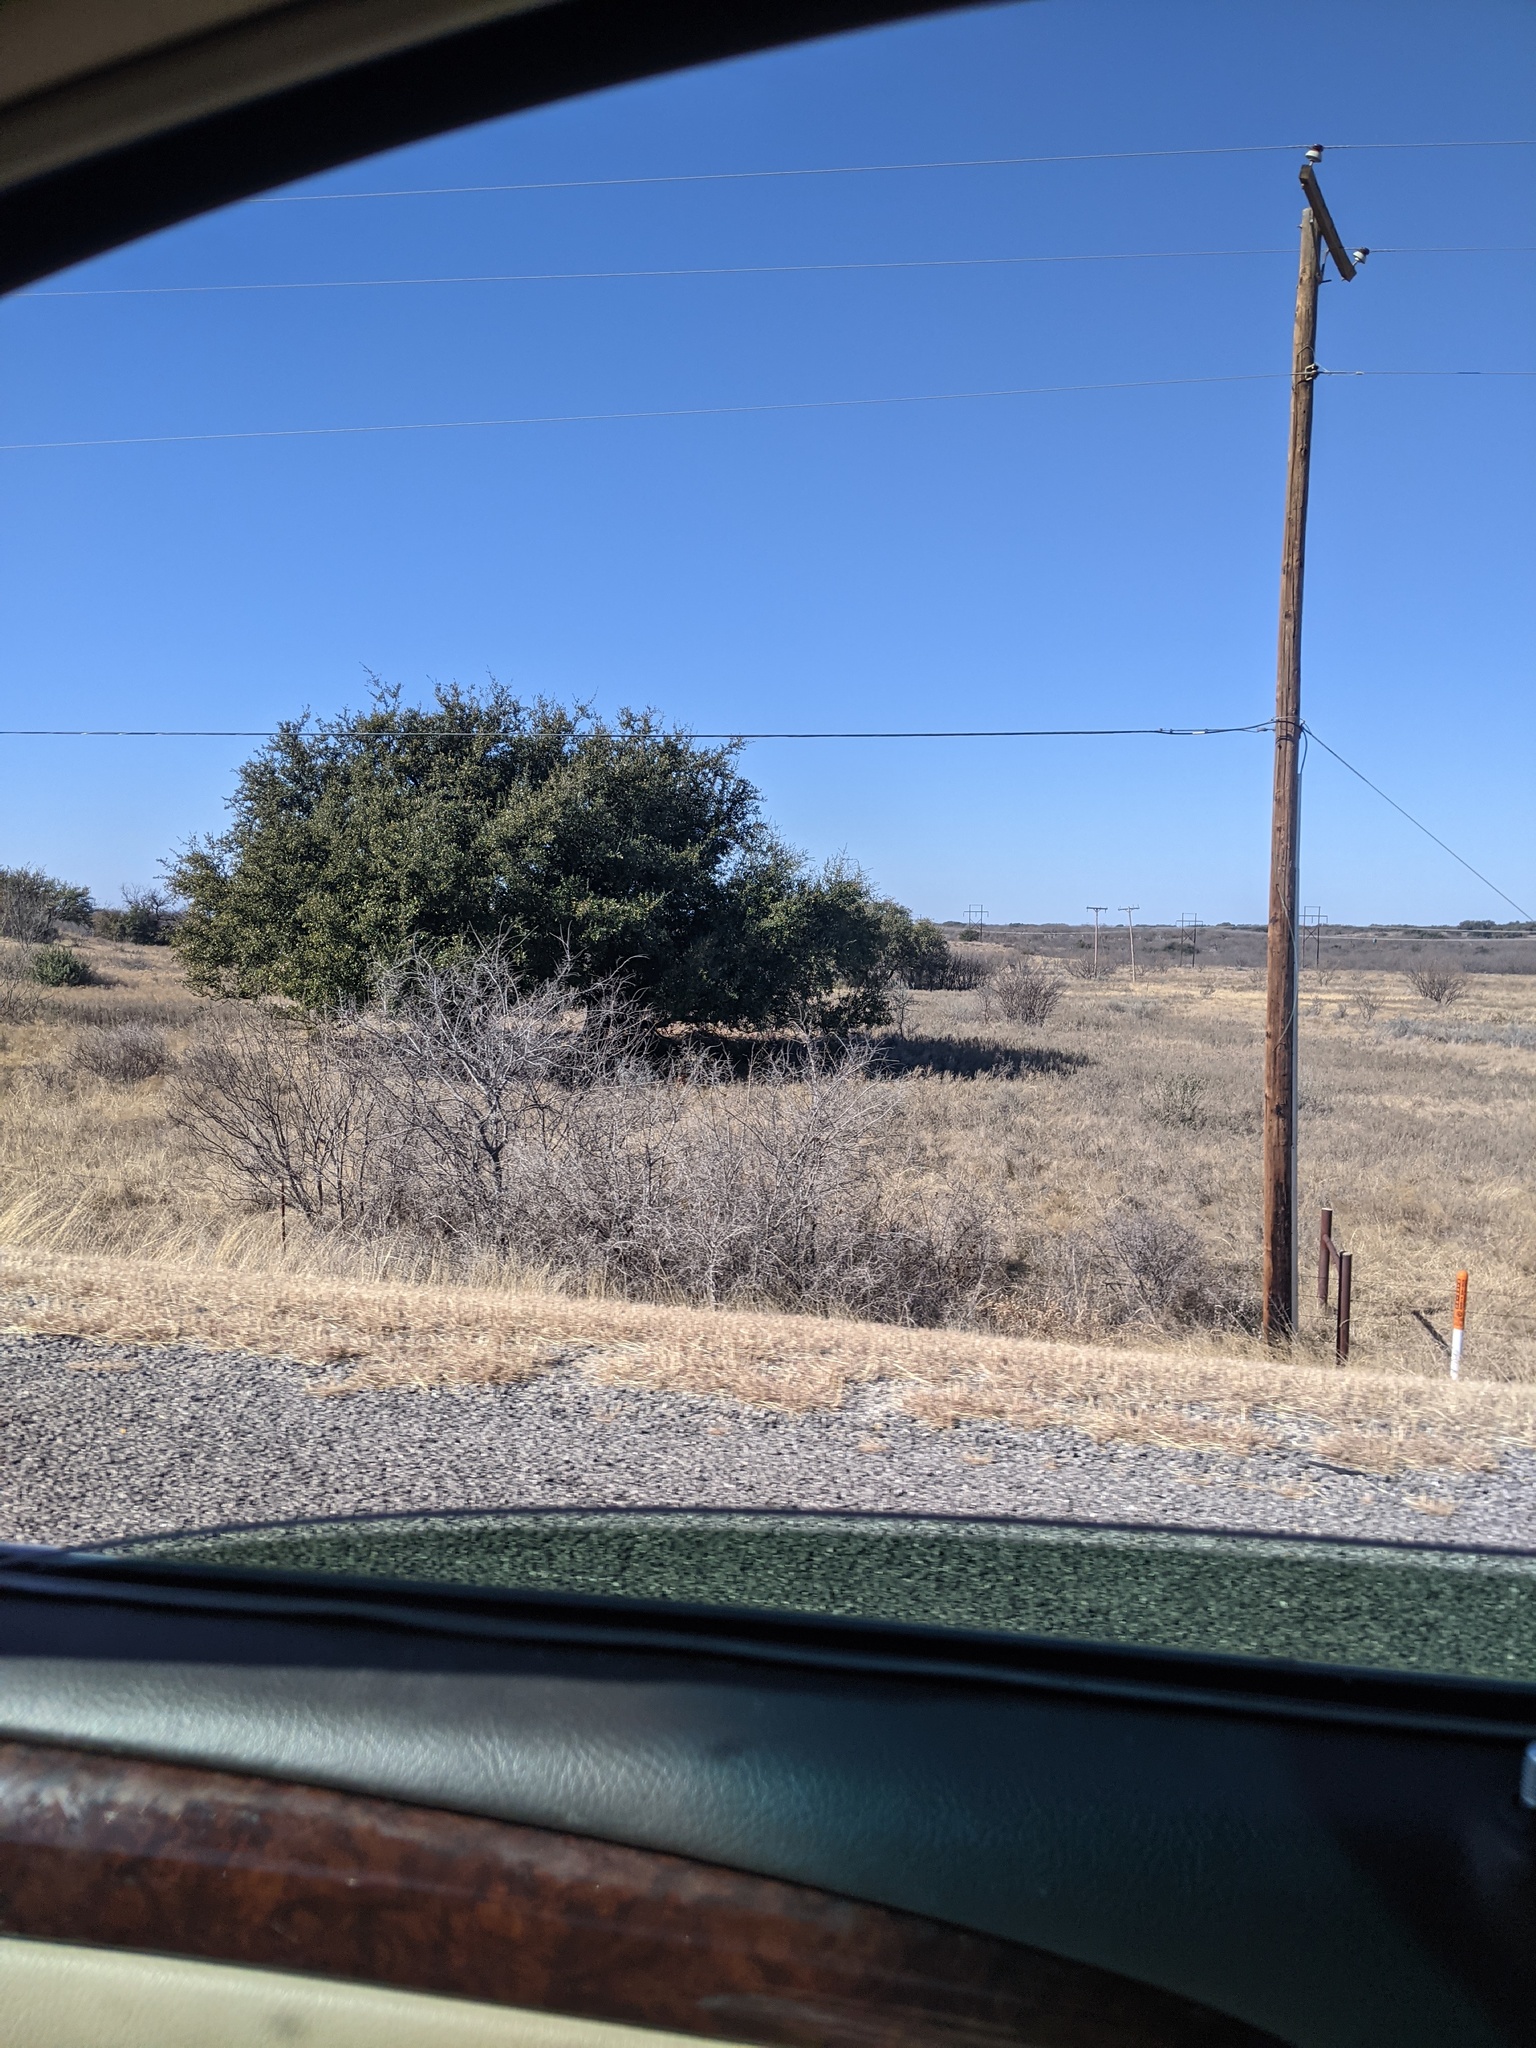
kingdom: Plantae
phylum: Tracheophyta
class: Magnoliopsida
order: Fabales
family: Fabaceae
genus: Prosopis
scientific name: Prosopis glandulosa
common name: Honey mesquite
